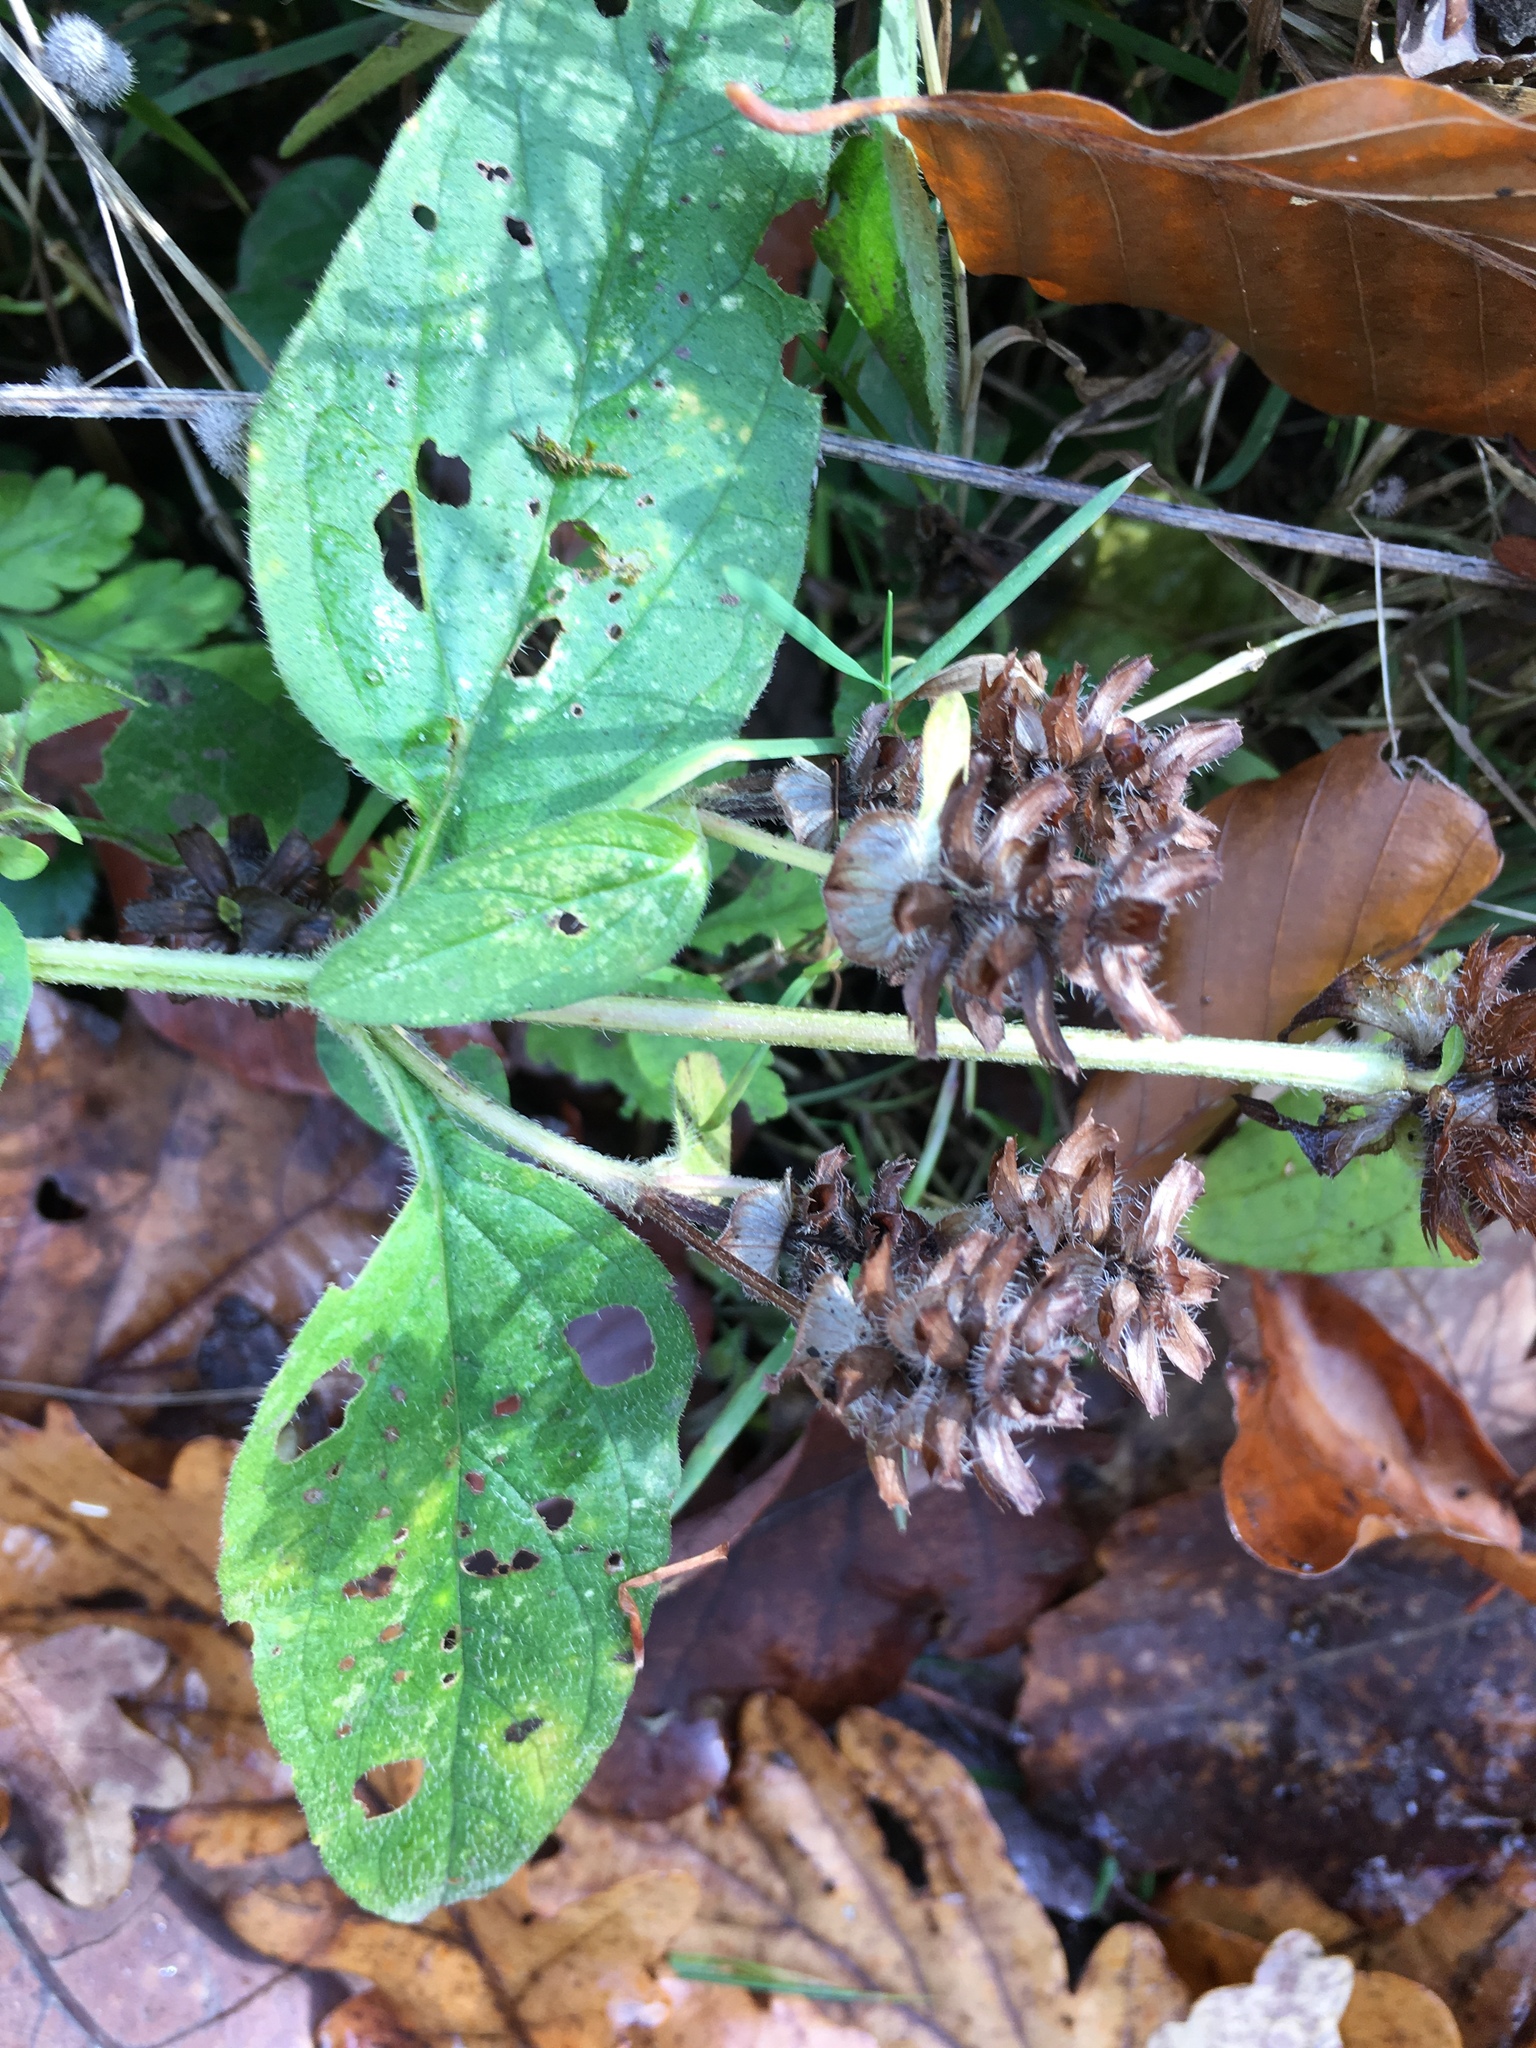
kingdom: Plantae
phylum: Tracheophyta
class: Magnoliopsida
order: Lamiales
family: Lamiaceae
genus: Prunella
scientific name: Prunella vulgaris
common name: Heal-all
